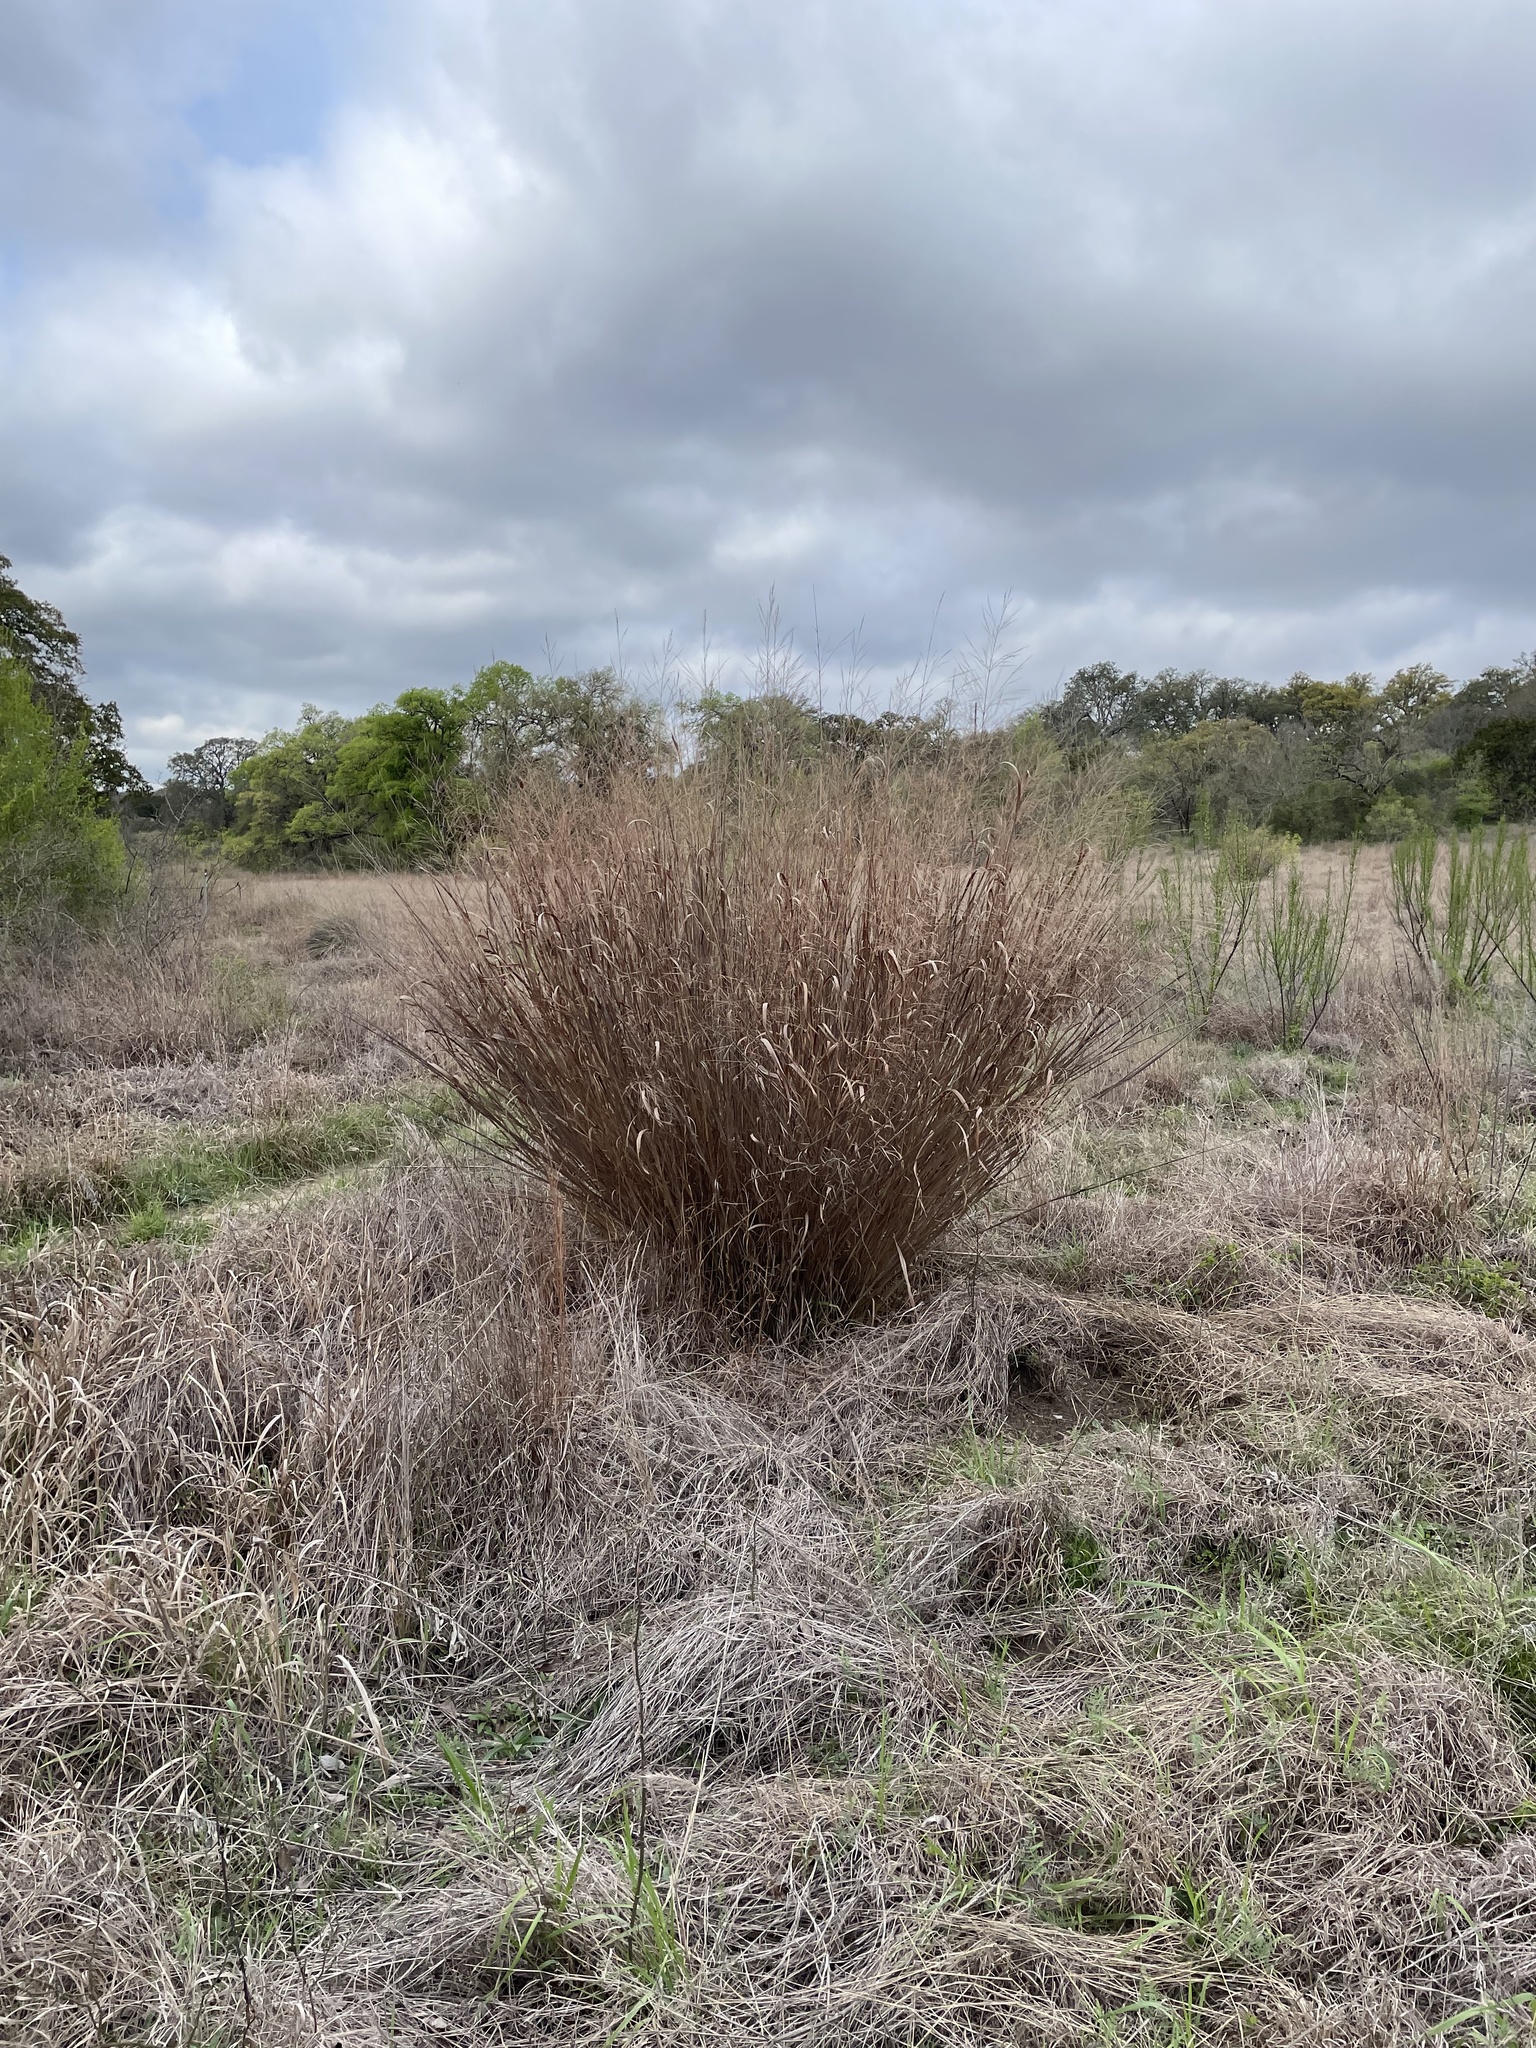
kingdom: Plantae
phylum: Tracheophyta
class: Liliopsida
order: Poales
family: Poaceae
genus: Panicum
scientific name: Panicum virgatum
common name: Switchgrass
